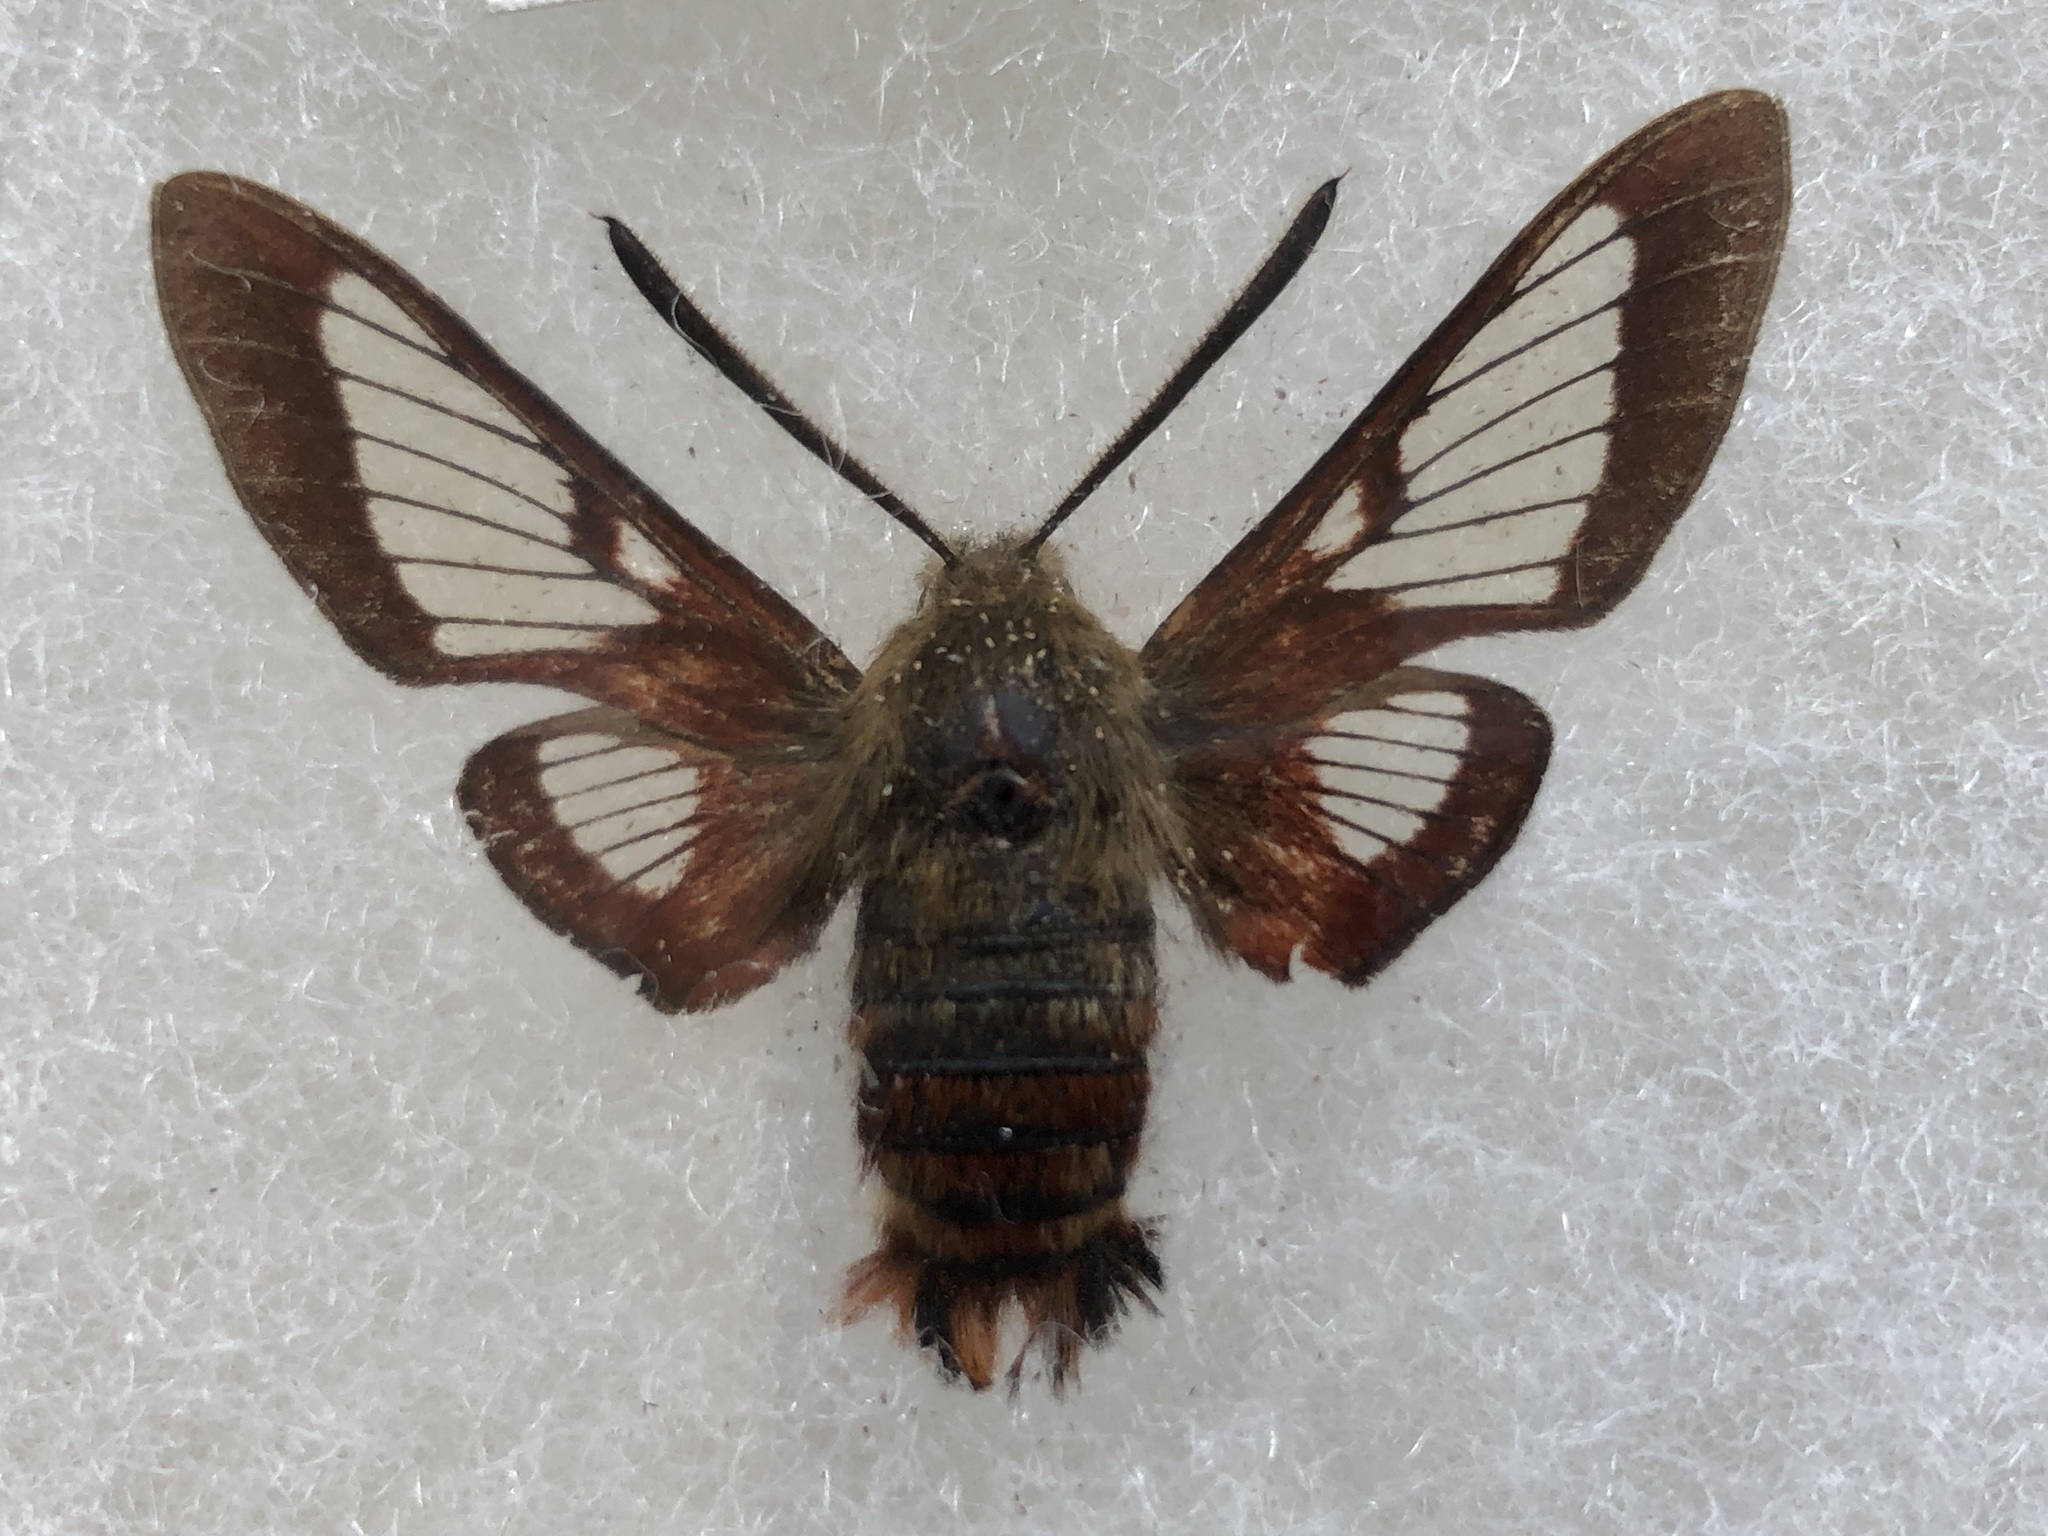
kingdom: Animalia
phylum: Arthropoda
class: Insecta
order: Lepidoptera
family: Sphingidae
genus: Hemaris
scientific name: Hemaris gracilis
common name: Graceful clearwing
